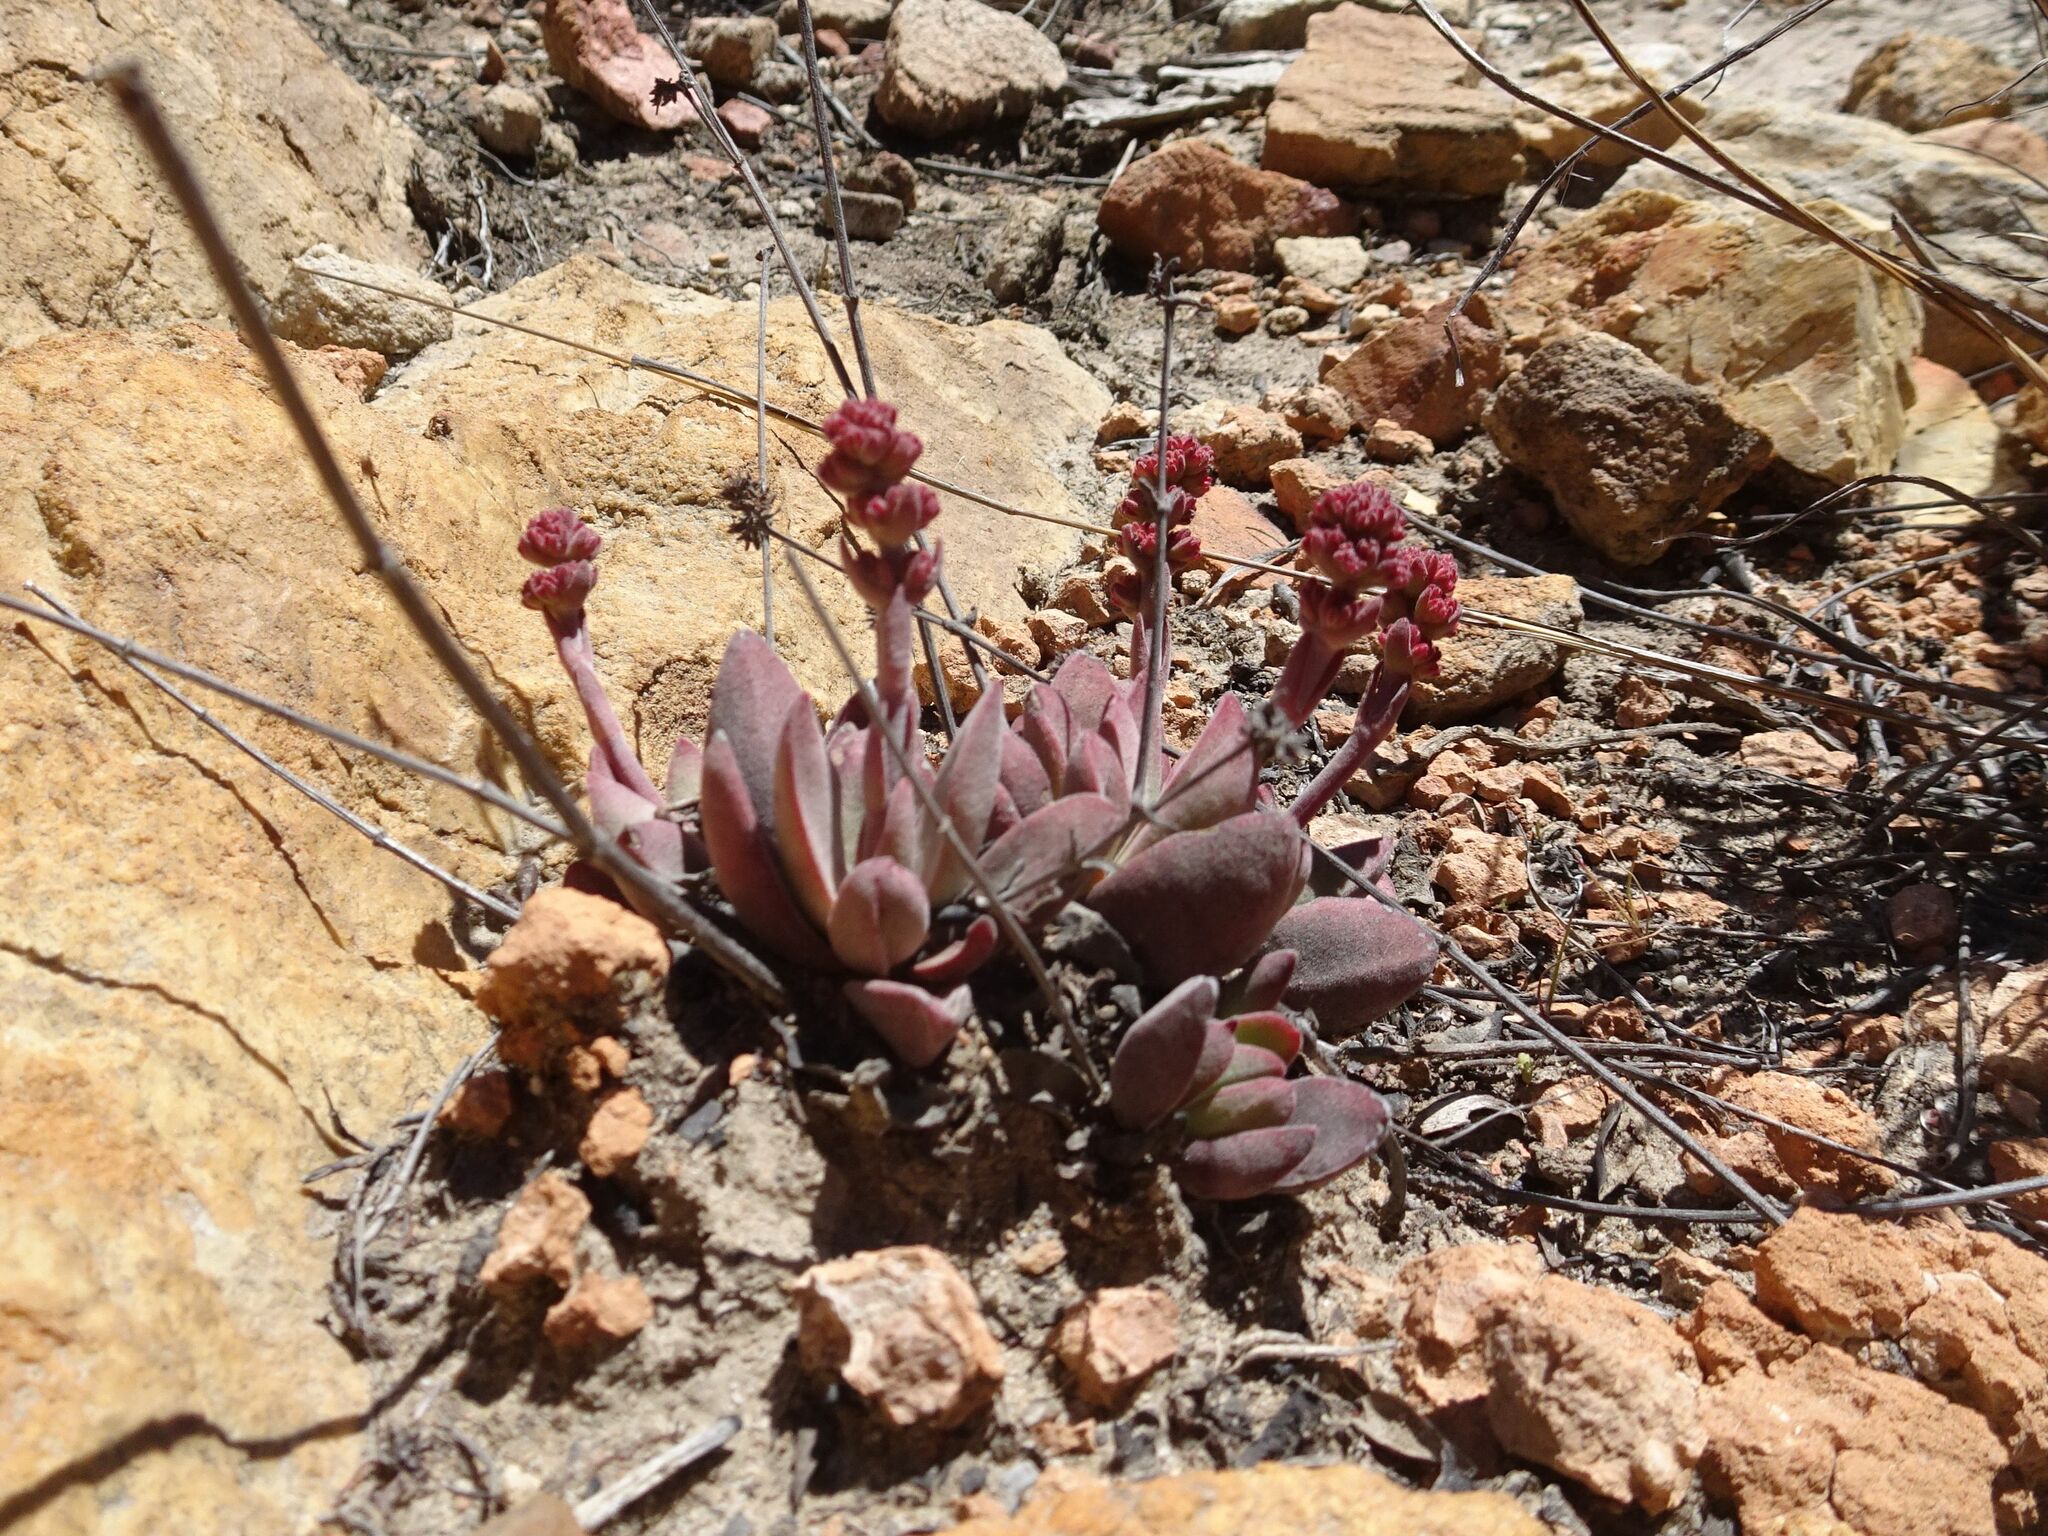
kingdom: Plantae
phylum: Tracheophyta
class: Magnoliopsida
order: Saxifragales
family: Crassulaceae
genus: Crassula
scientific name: Crassula pubescens
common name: Jersey pigmyweed
